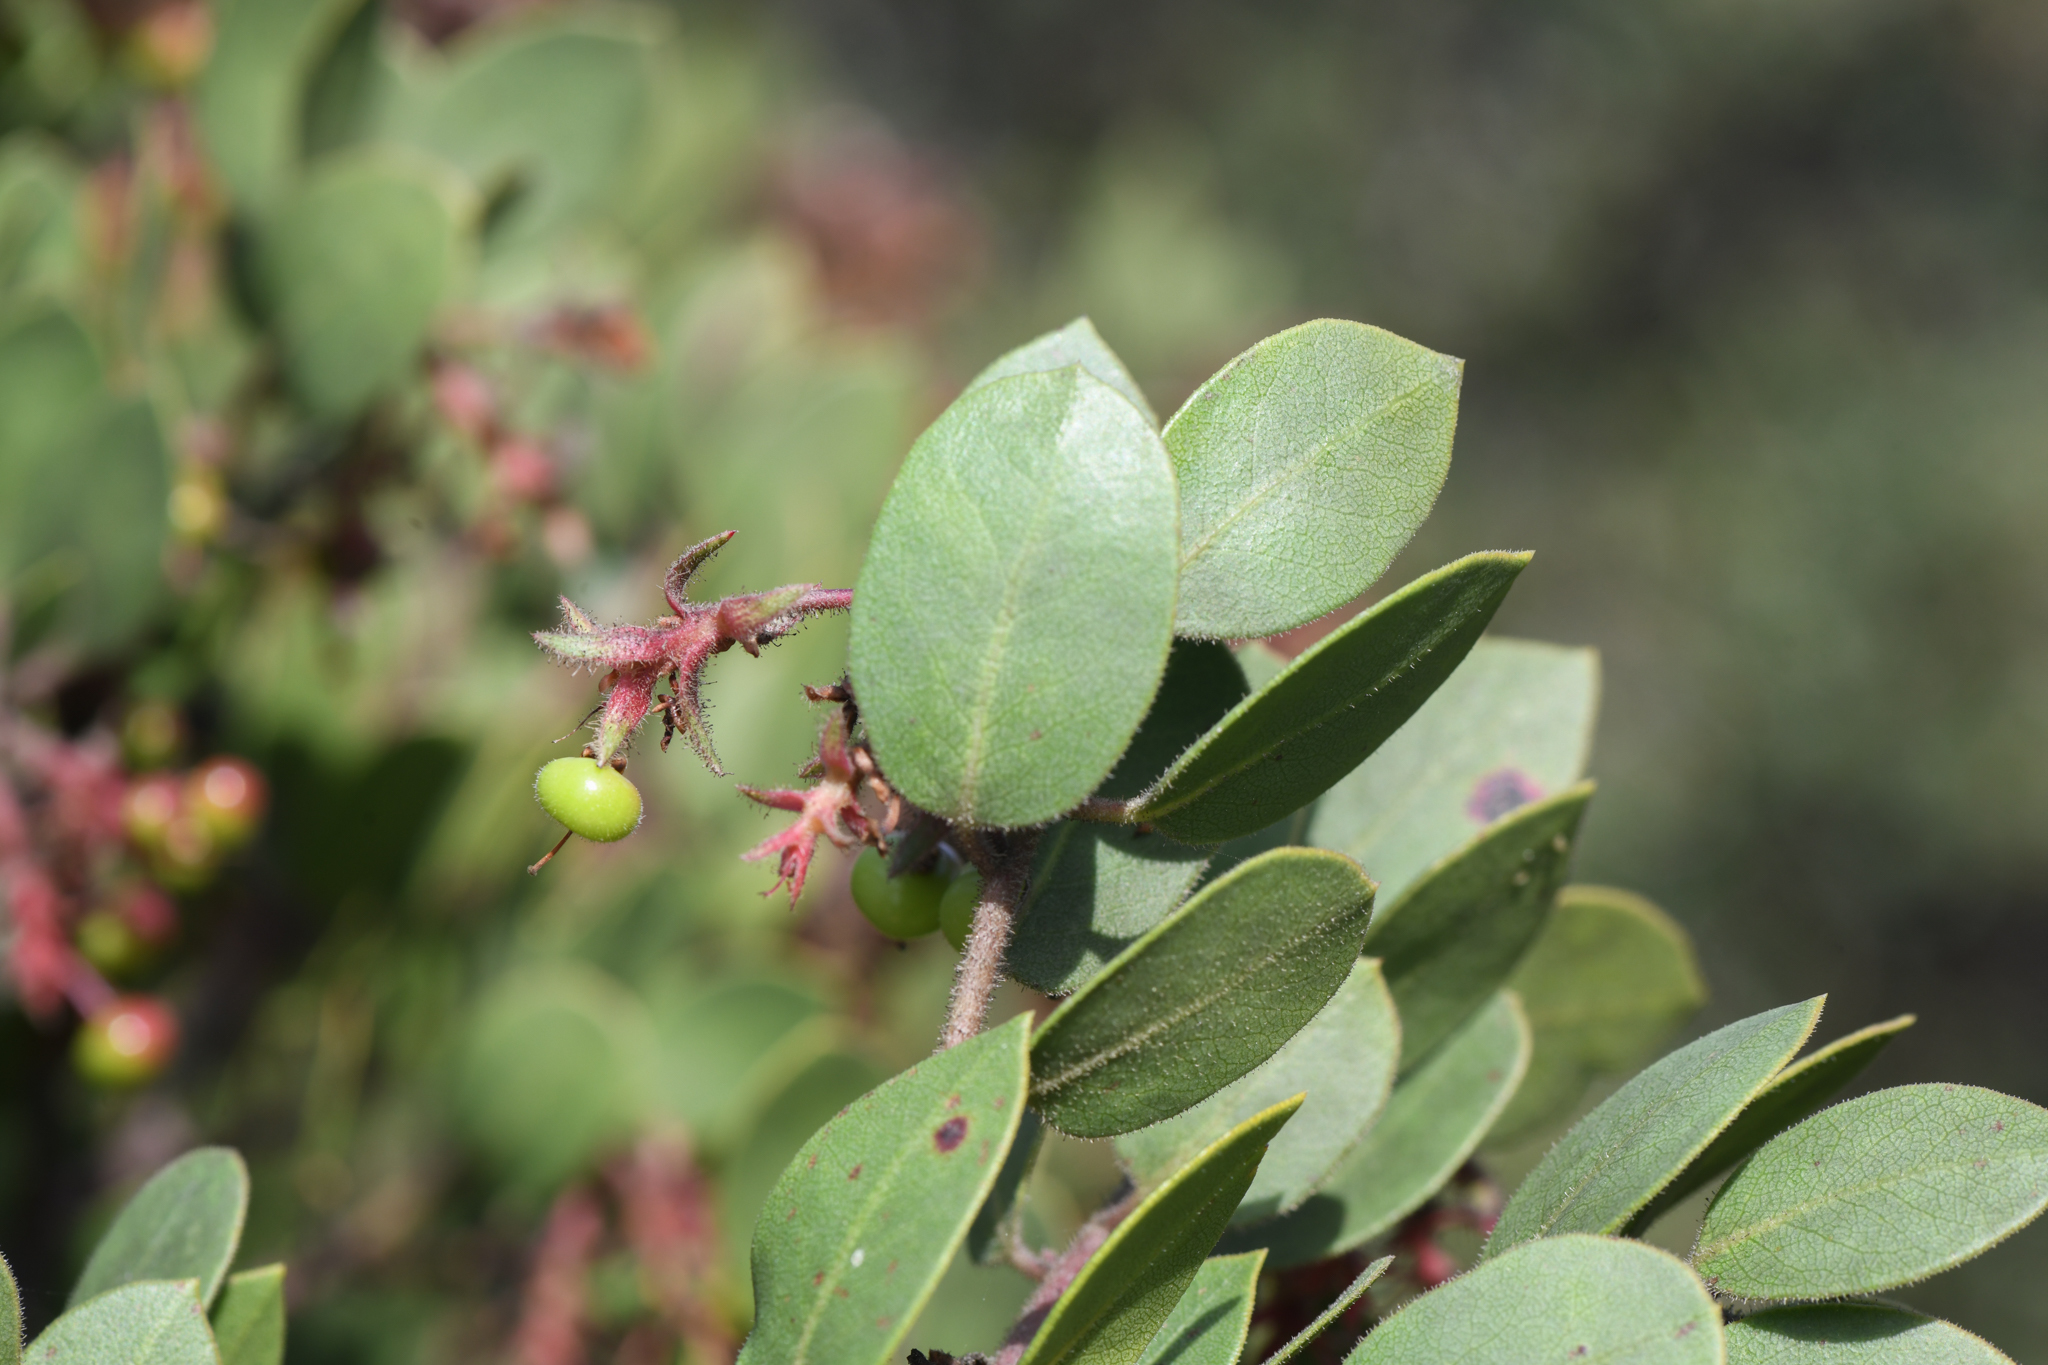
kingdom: Plantae
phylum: Tracheophyta
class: Magnoliopsida
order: Ericales
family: Ericaceae
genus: Arctostaphylos
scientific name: Arctostaphylos montereyensis
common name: Monterey manzanita
